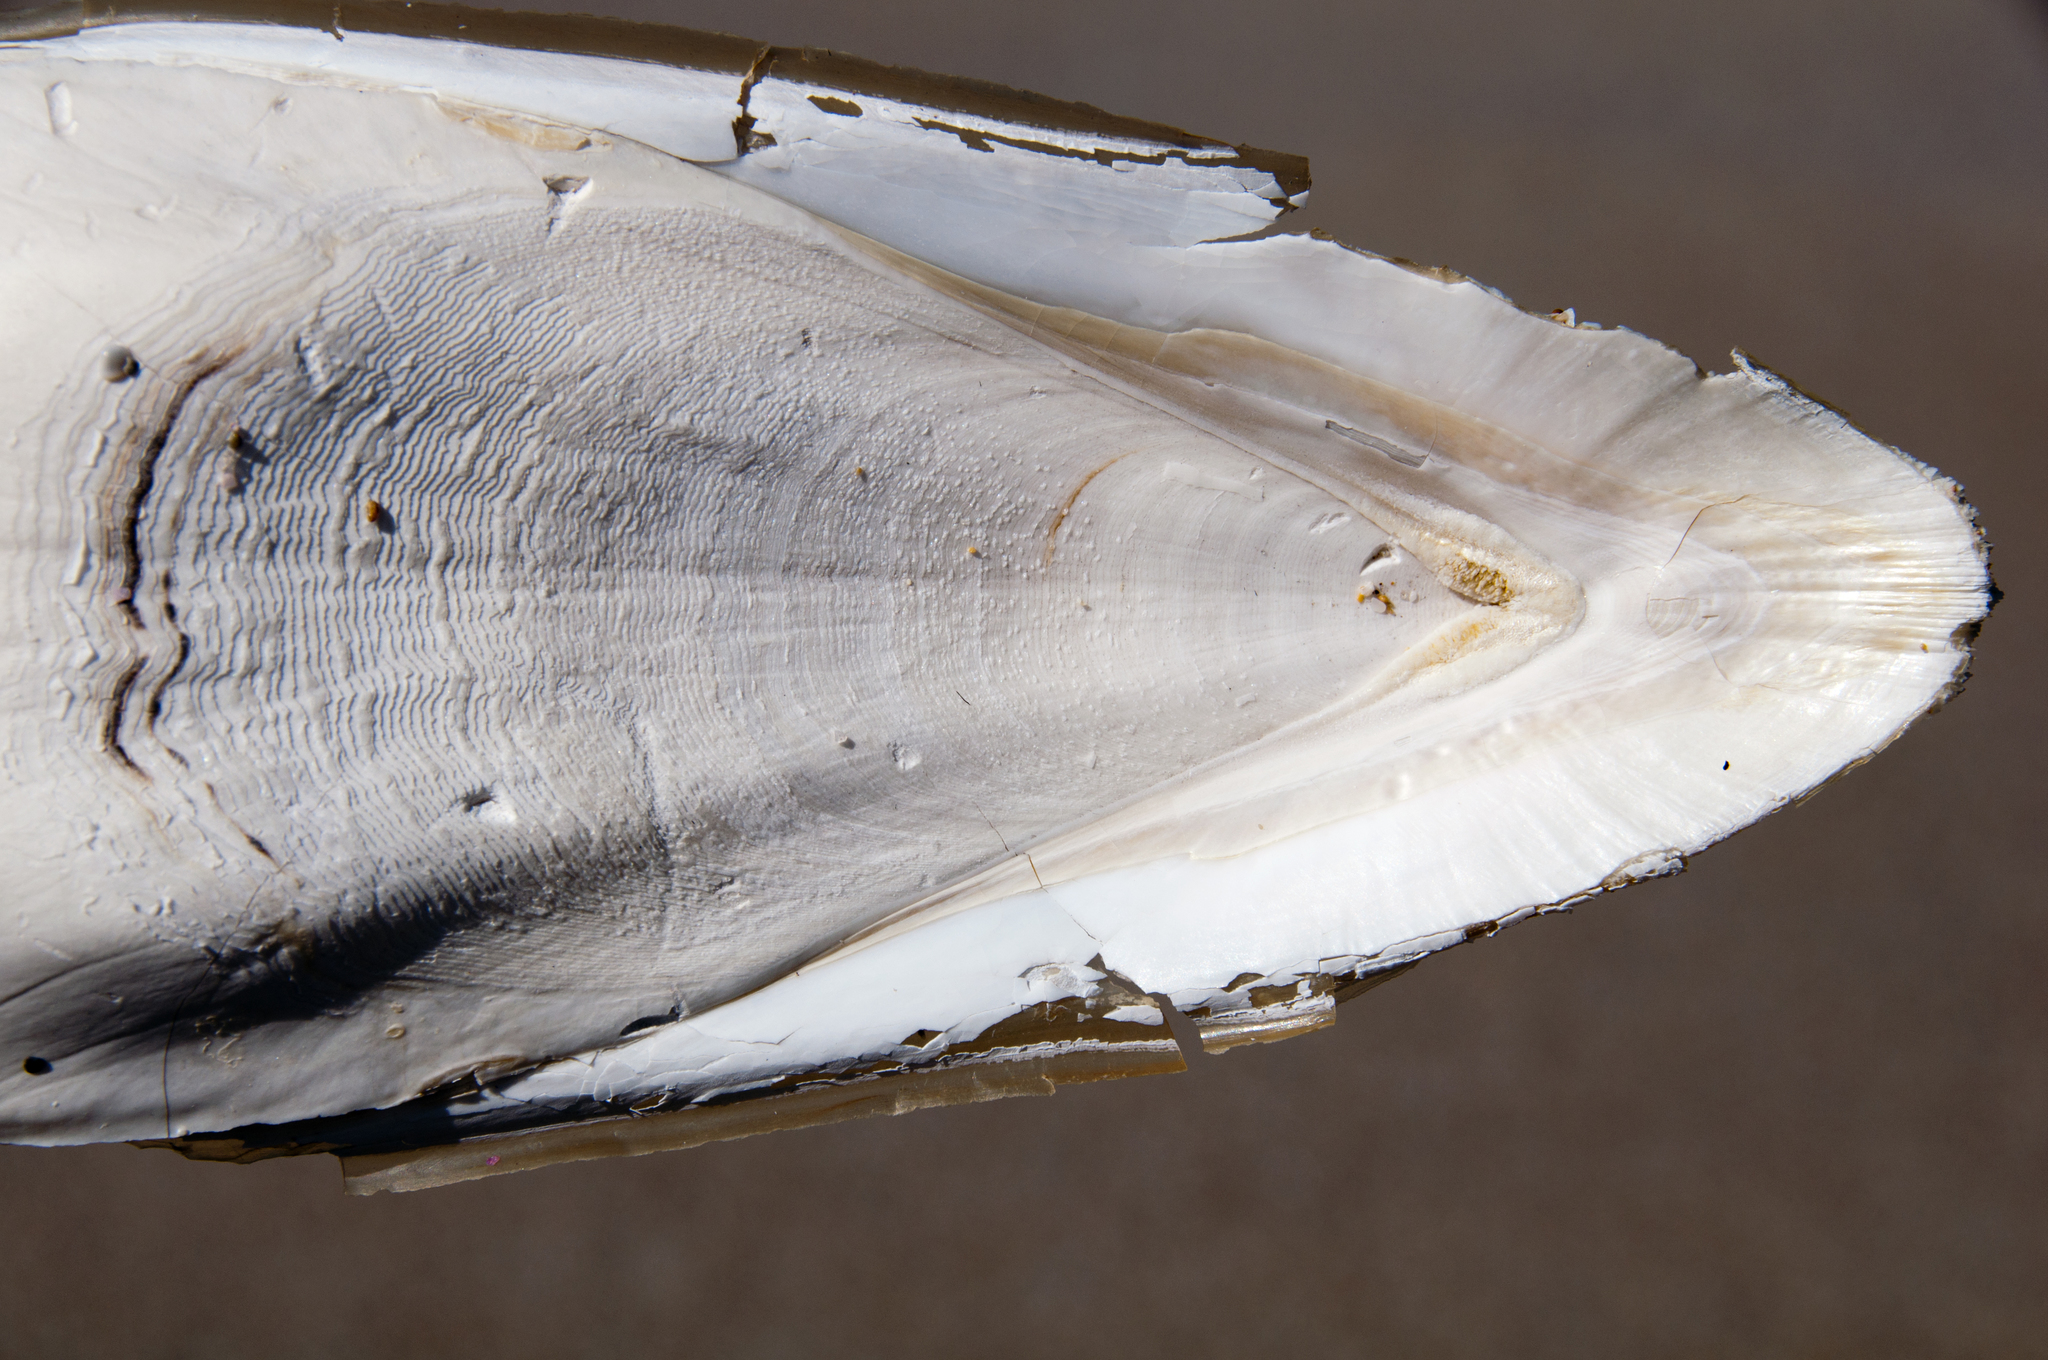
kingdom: Animalia
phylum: Mollusca
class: Cephalopoda
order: Sepiida
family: Sepiidae
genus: Ascarosepion
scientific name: Ascarosepion apama
